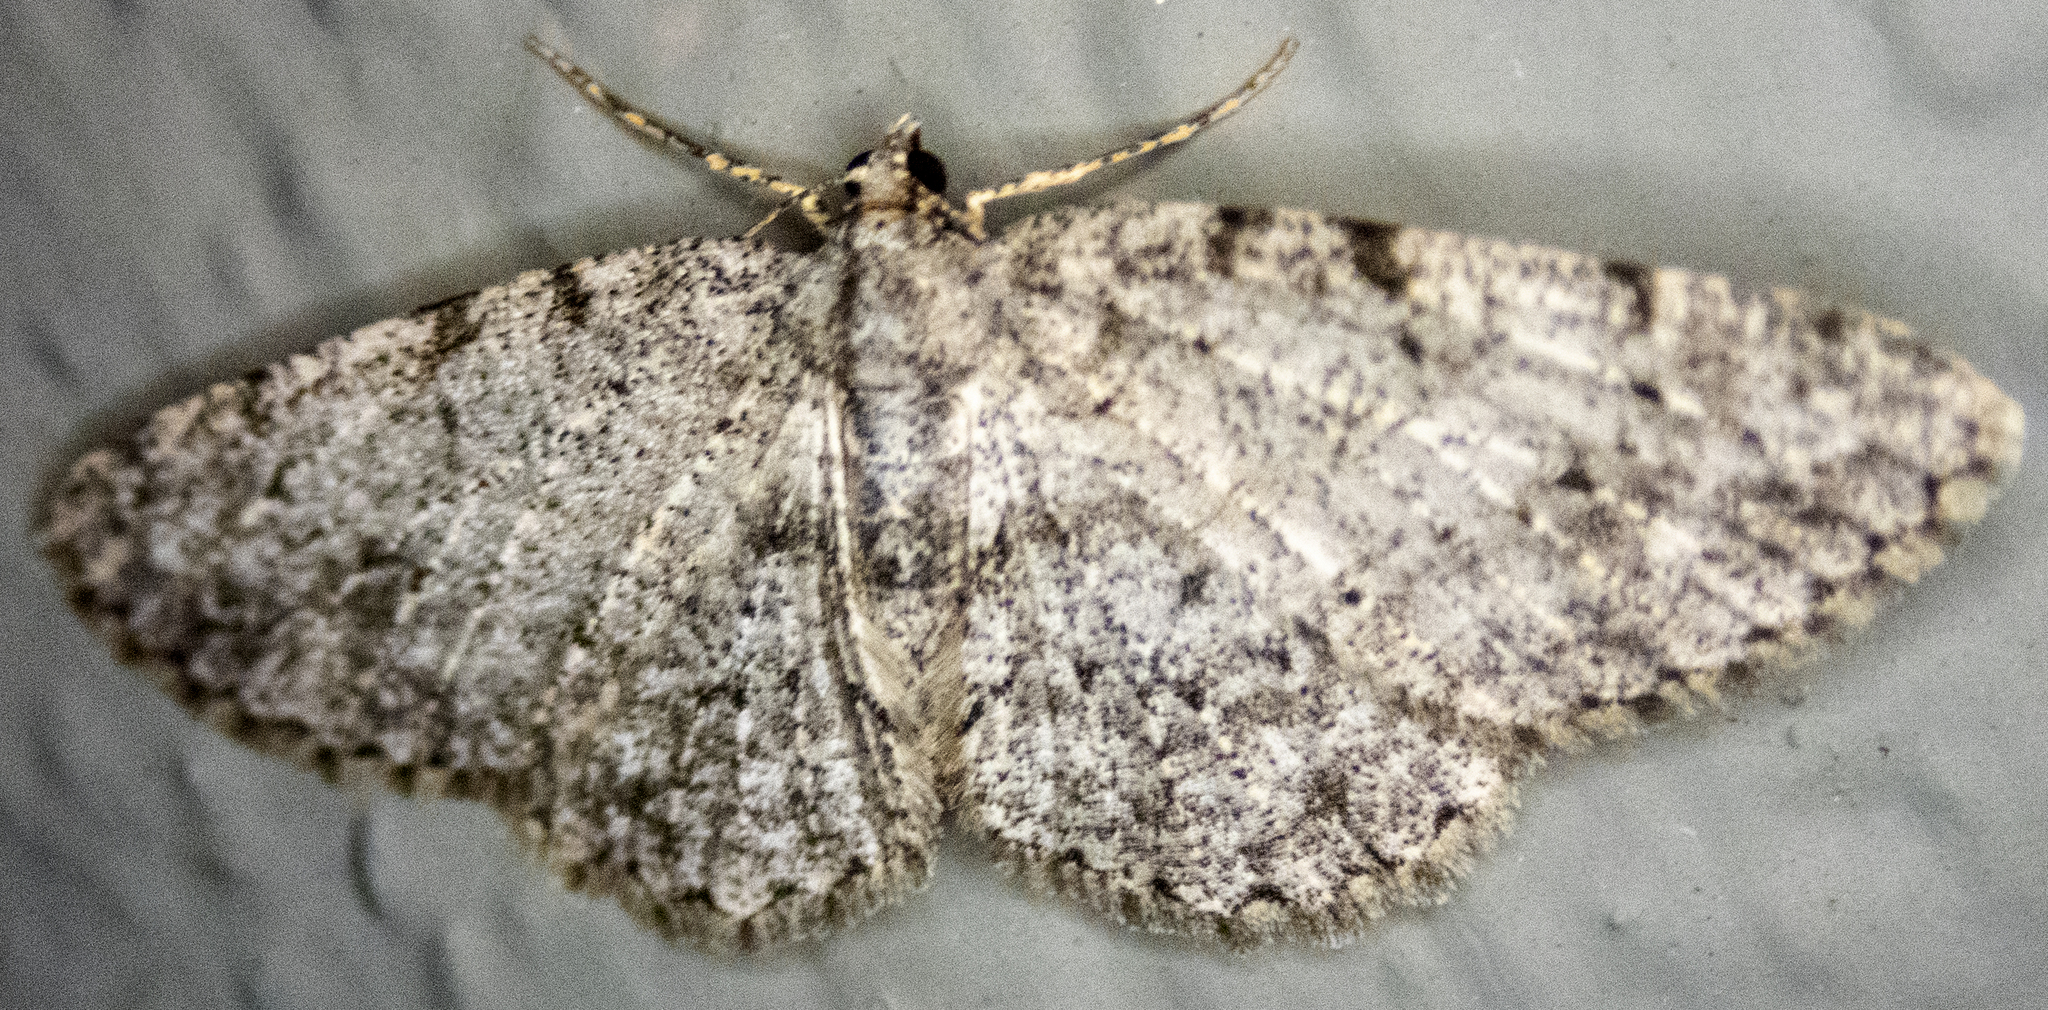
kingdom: Animalia
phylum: Arthropoda
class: Insecta
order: Lepidoptera
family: Geometridae
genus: Protoboarmia
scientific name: Protoboarmia porcelaria
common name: Porcelain gray
